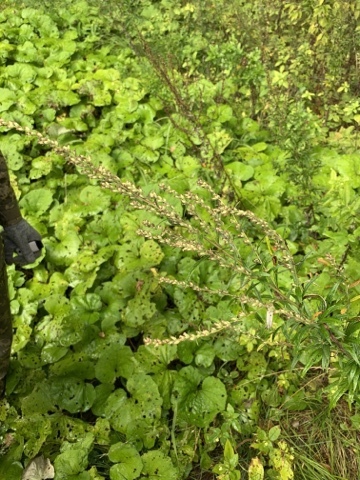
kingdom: Plantae
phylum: Tracheophyta
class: Magnoliopsida
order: Asterales
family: Asteraceae
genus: Artemisia
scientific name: Artemisia vulgaris
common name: Mugwort
